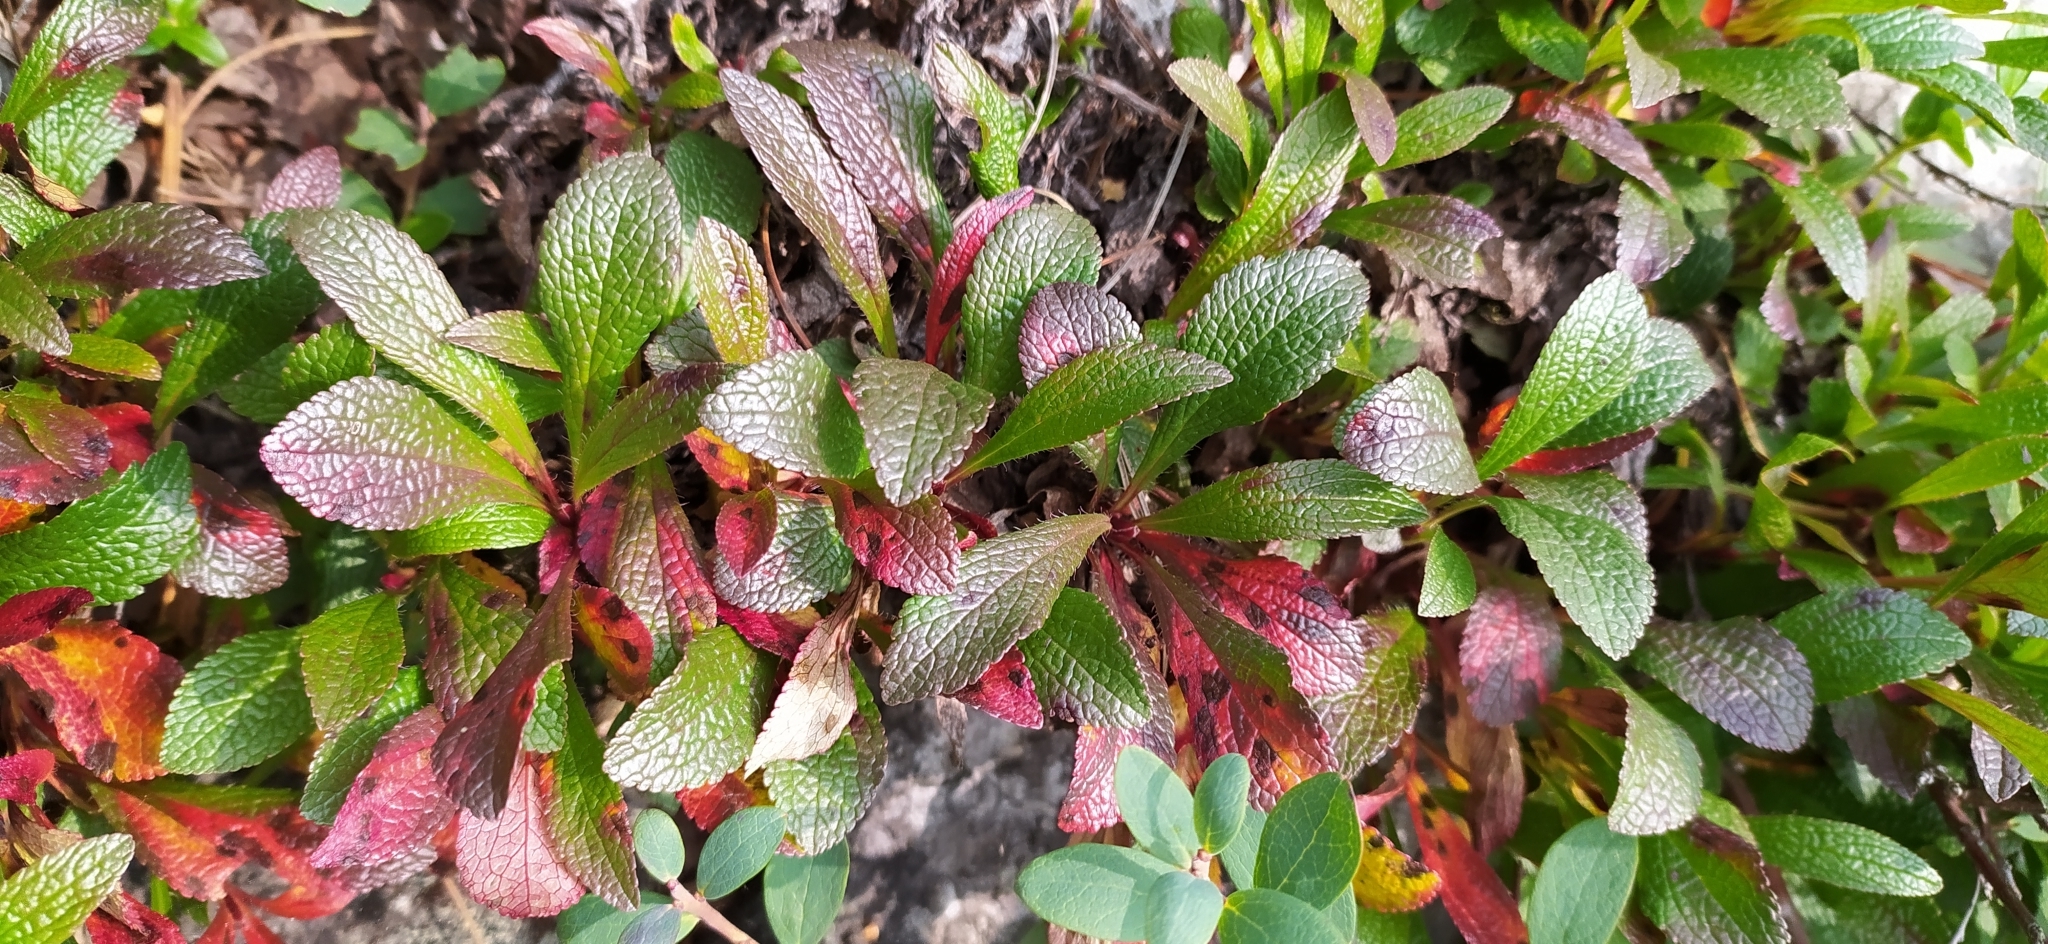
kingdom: Plantae
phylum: Tracheophyta
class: Magnoliopsida
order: Ericales
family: Ericaceae
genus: Arctostaphylos
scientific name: Arctostaphylos alpinus
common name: Alpine bearberry
